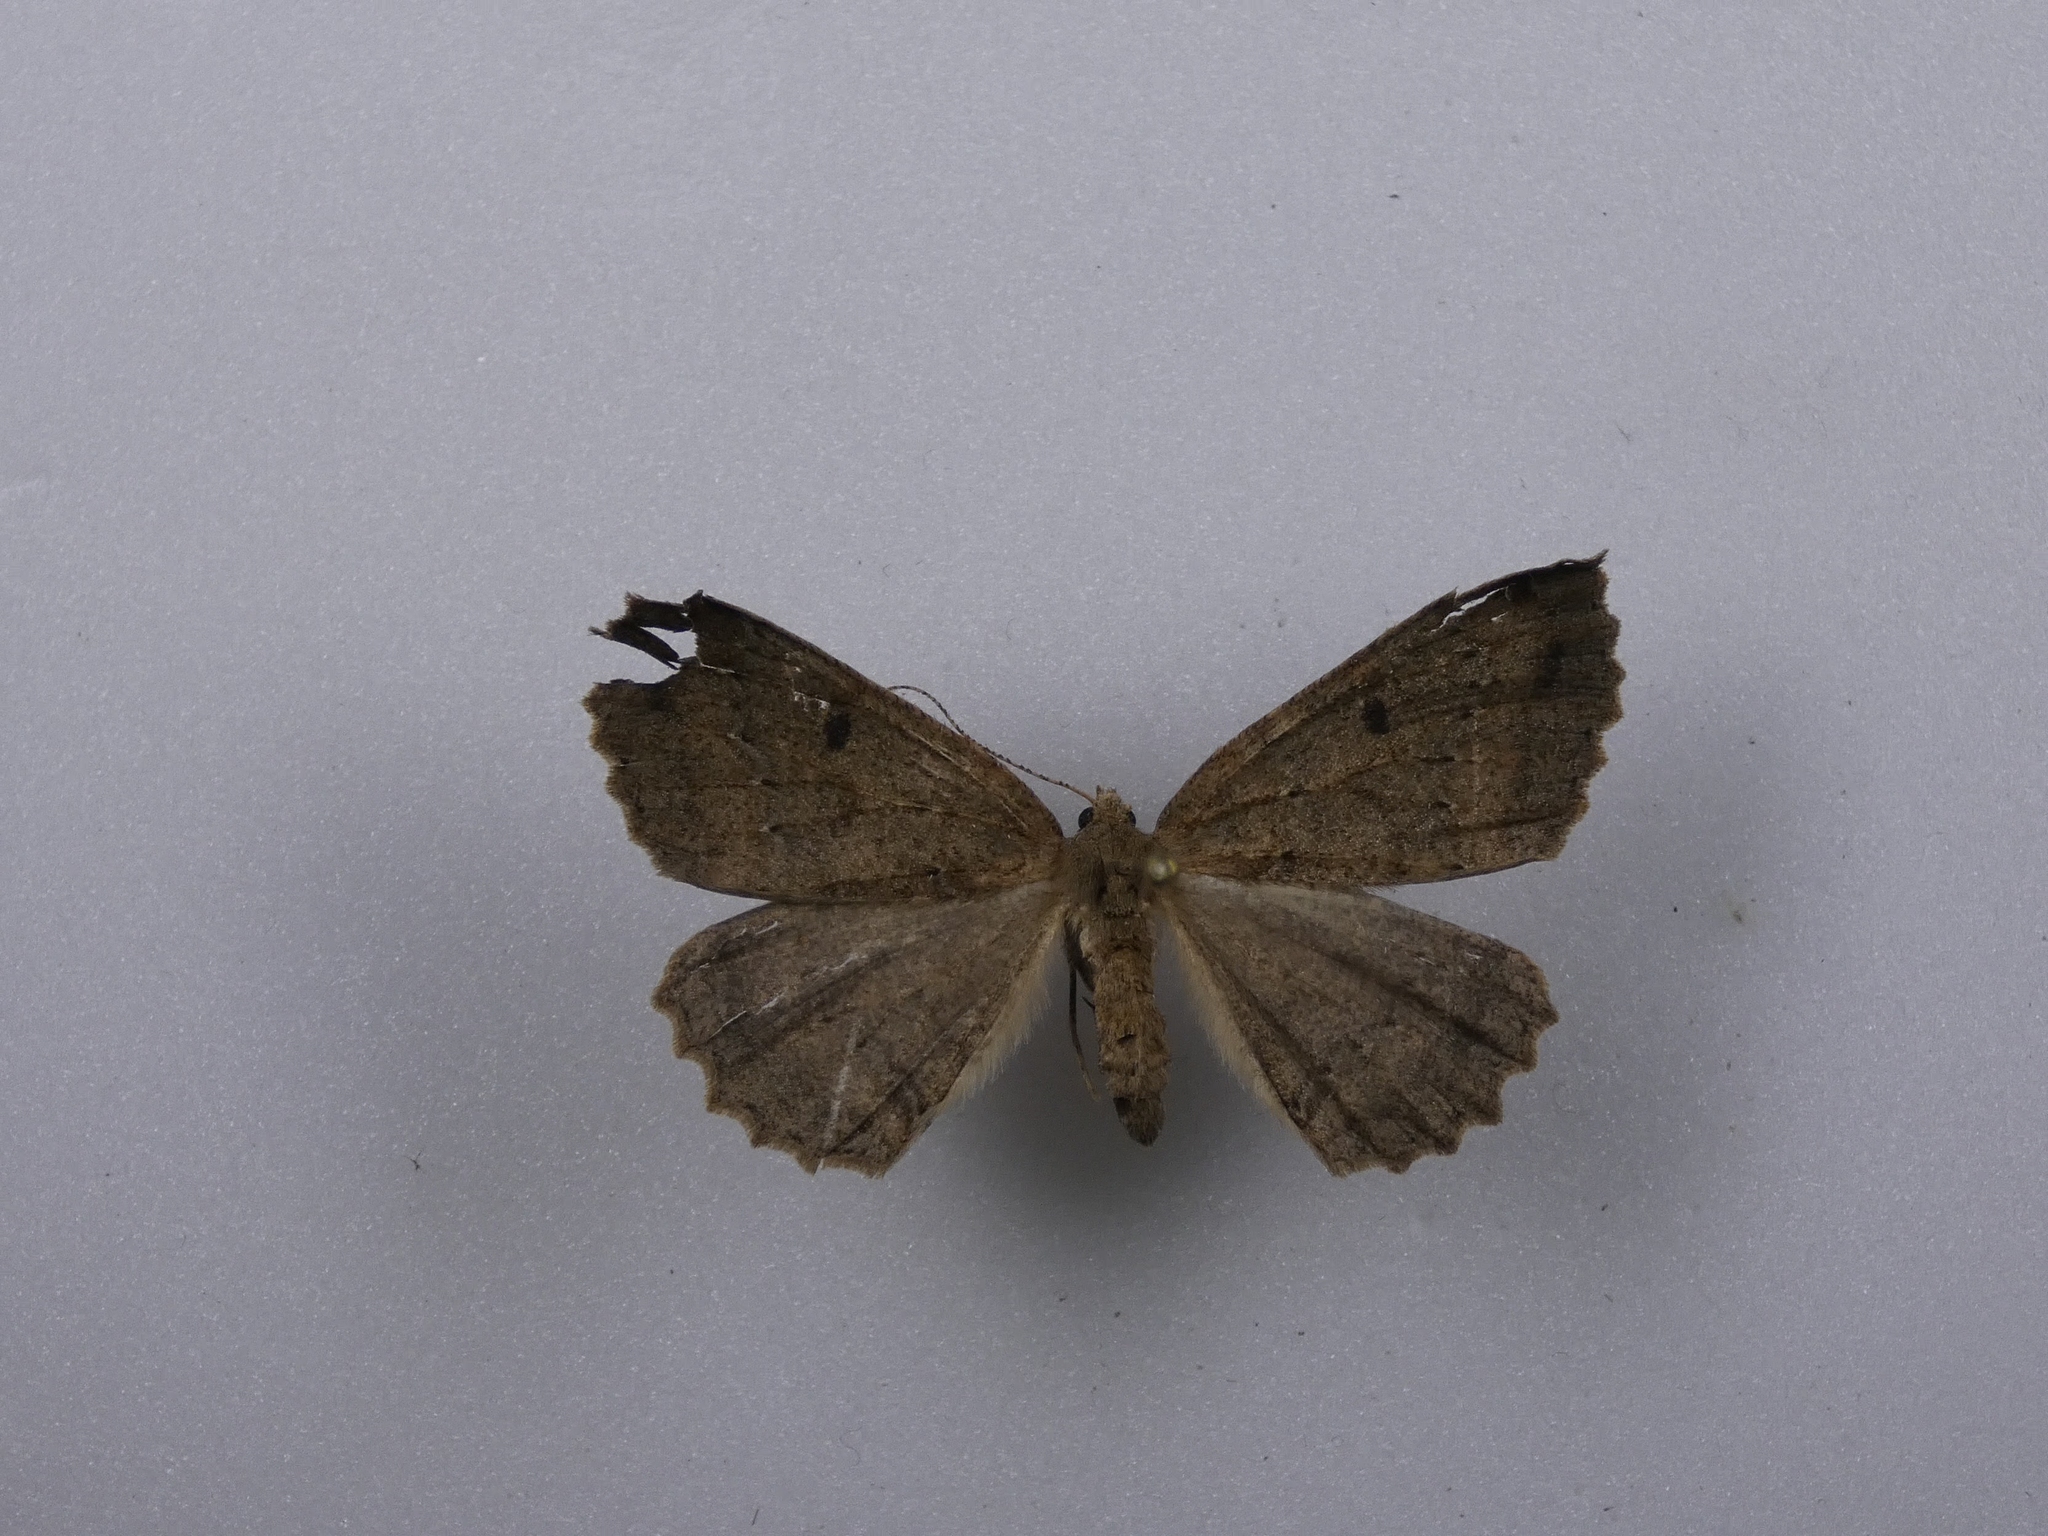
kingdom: Animalia
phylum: Arthropoda
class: Insecta
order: Lepidoptera
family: Geometridae
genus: Cleora
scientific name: Cleora scriptaria
